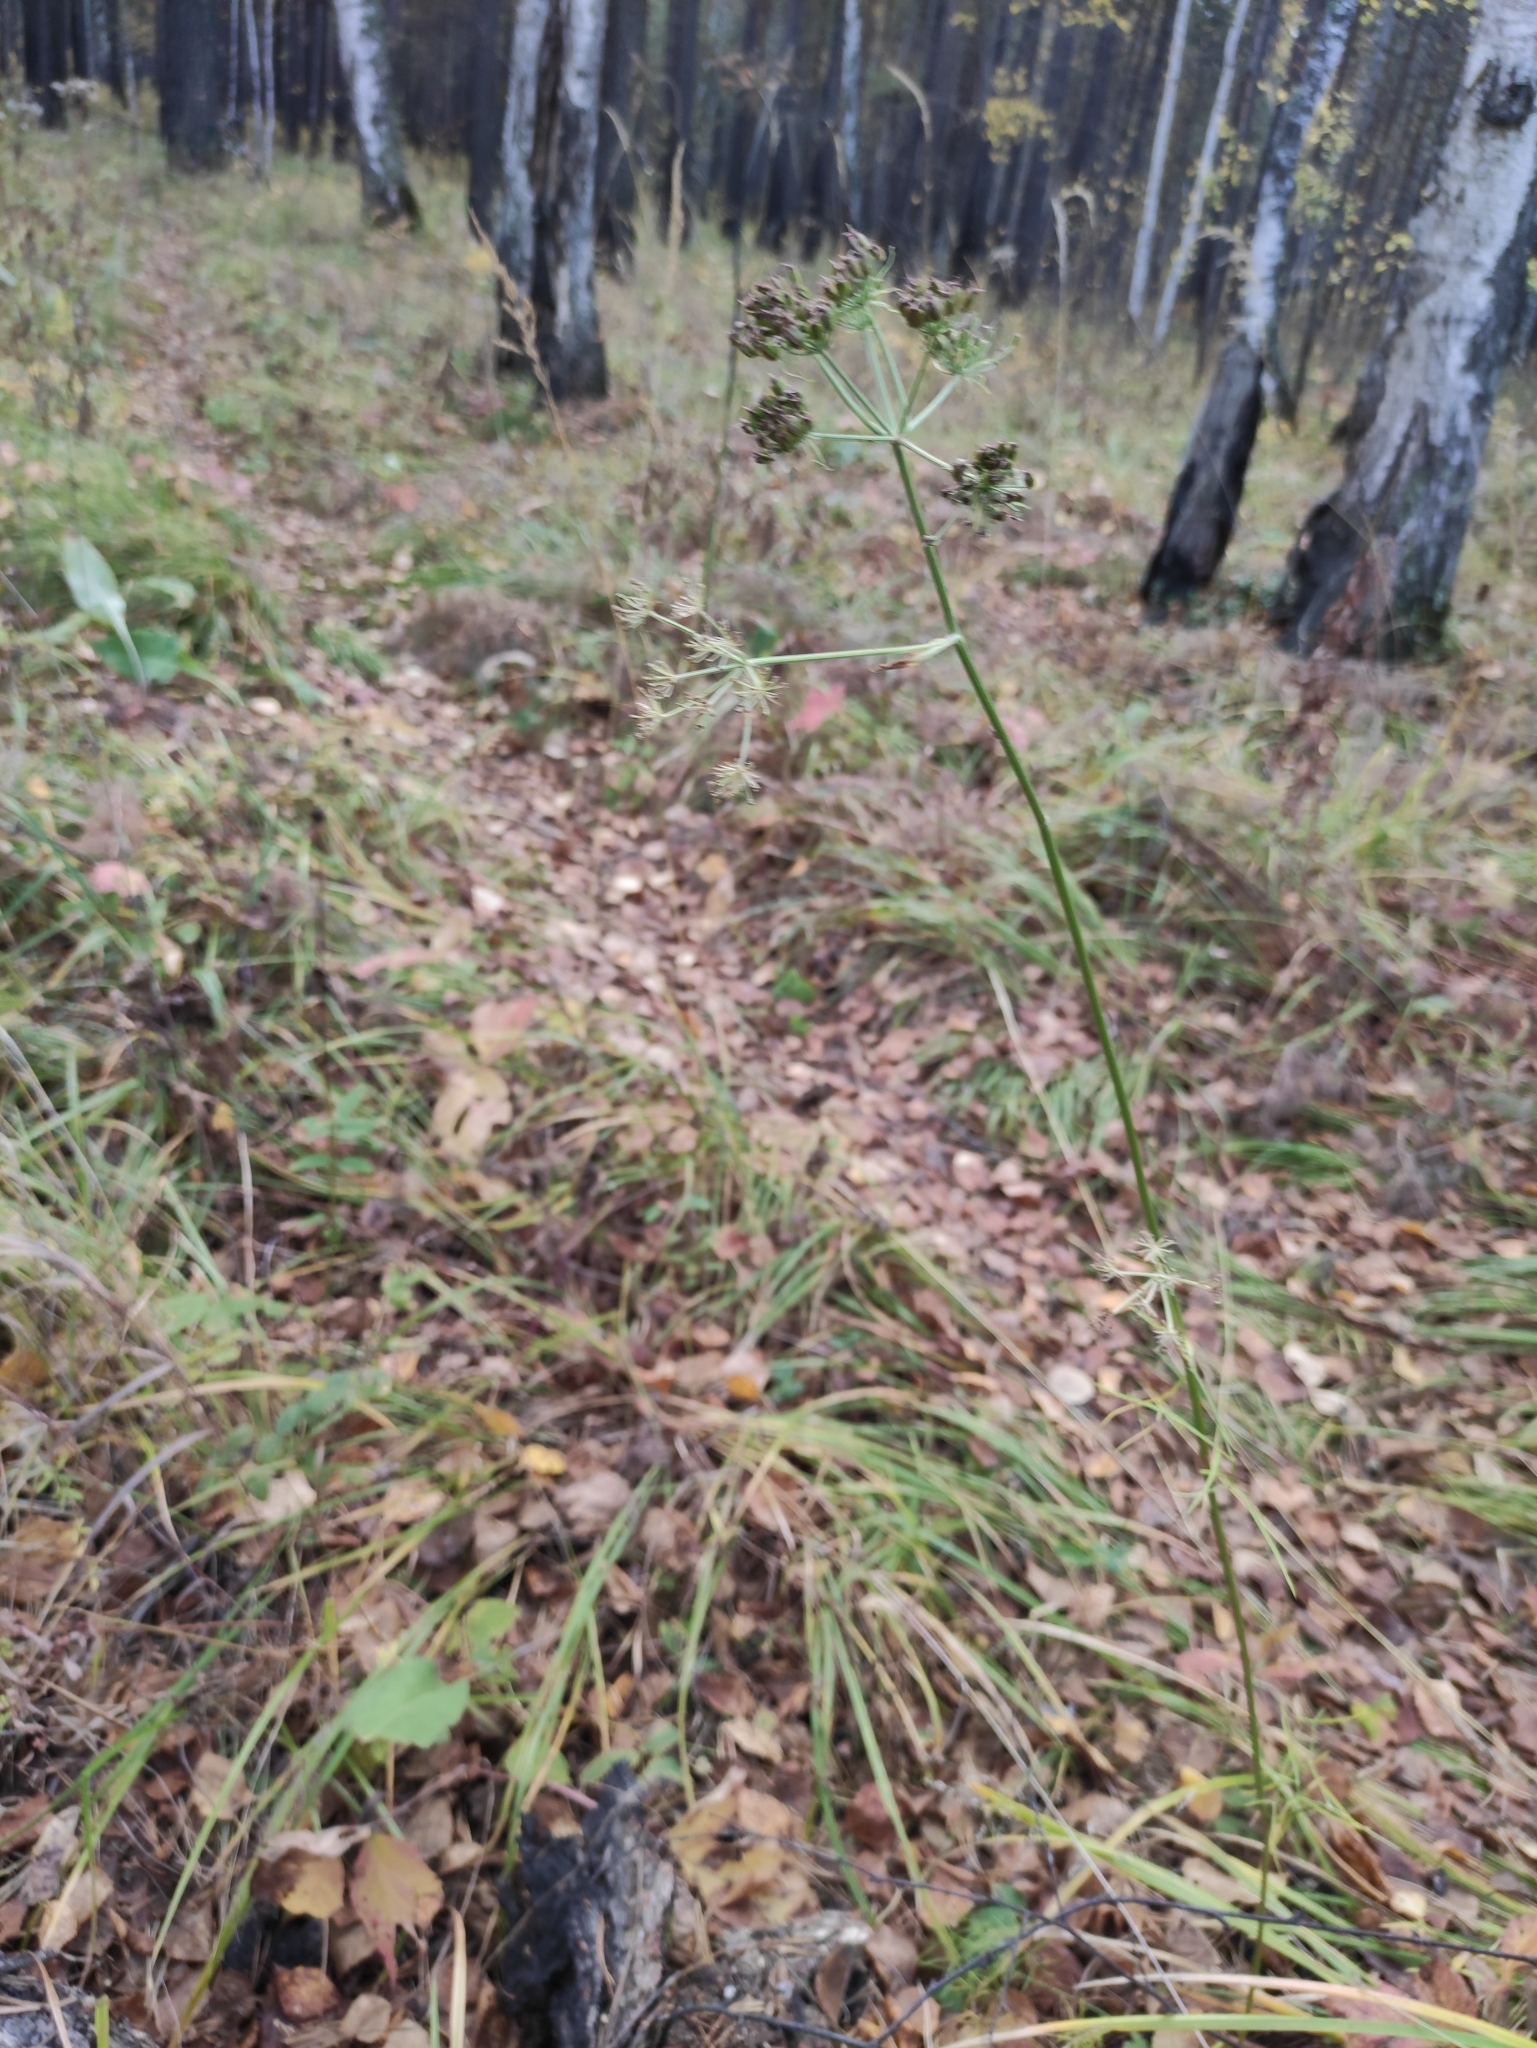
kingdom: Plantae
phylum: Tracheophyta
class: Magnoliopsida
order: Apiales
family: Apiaceae
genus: Ostericum
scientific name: Ostericum tenuifolium
